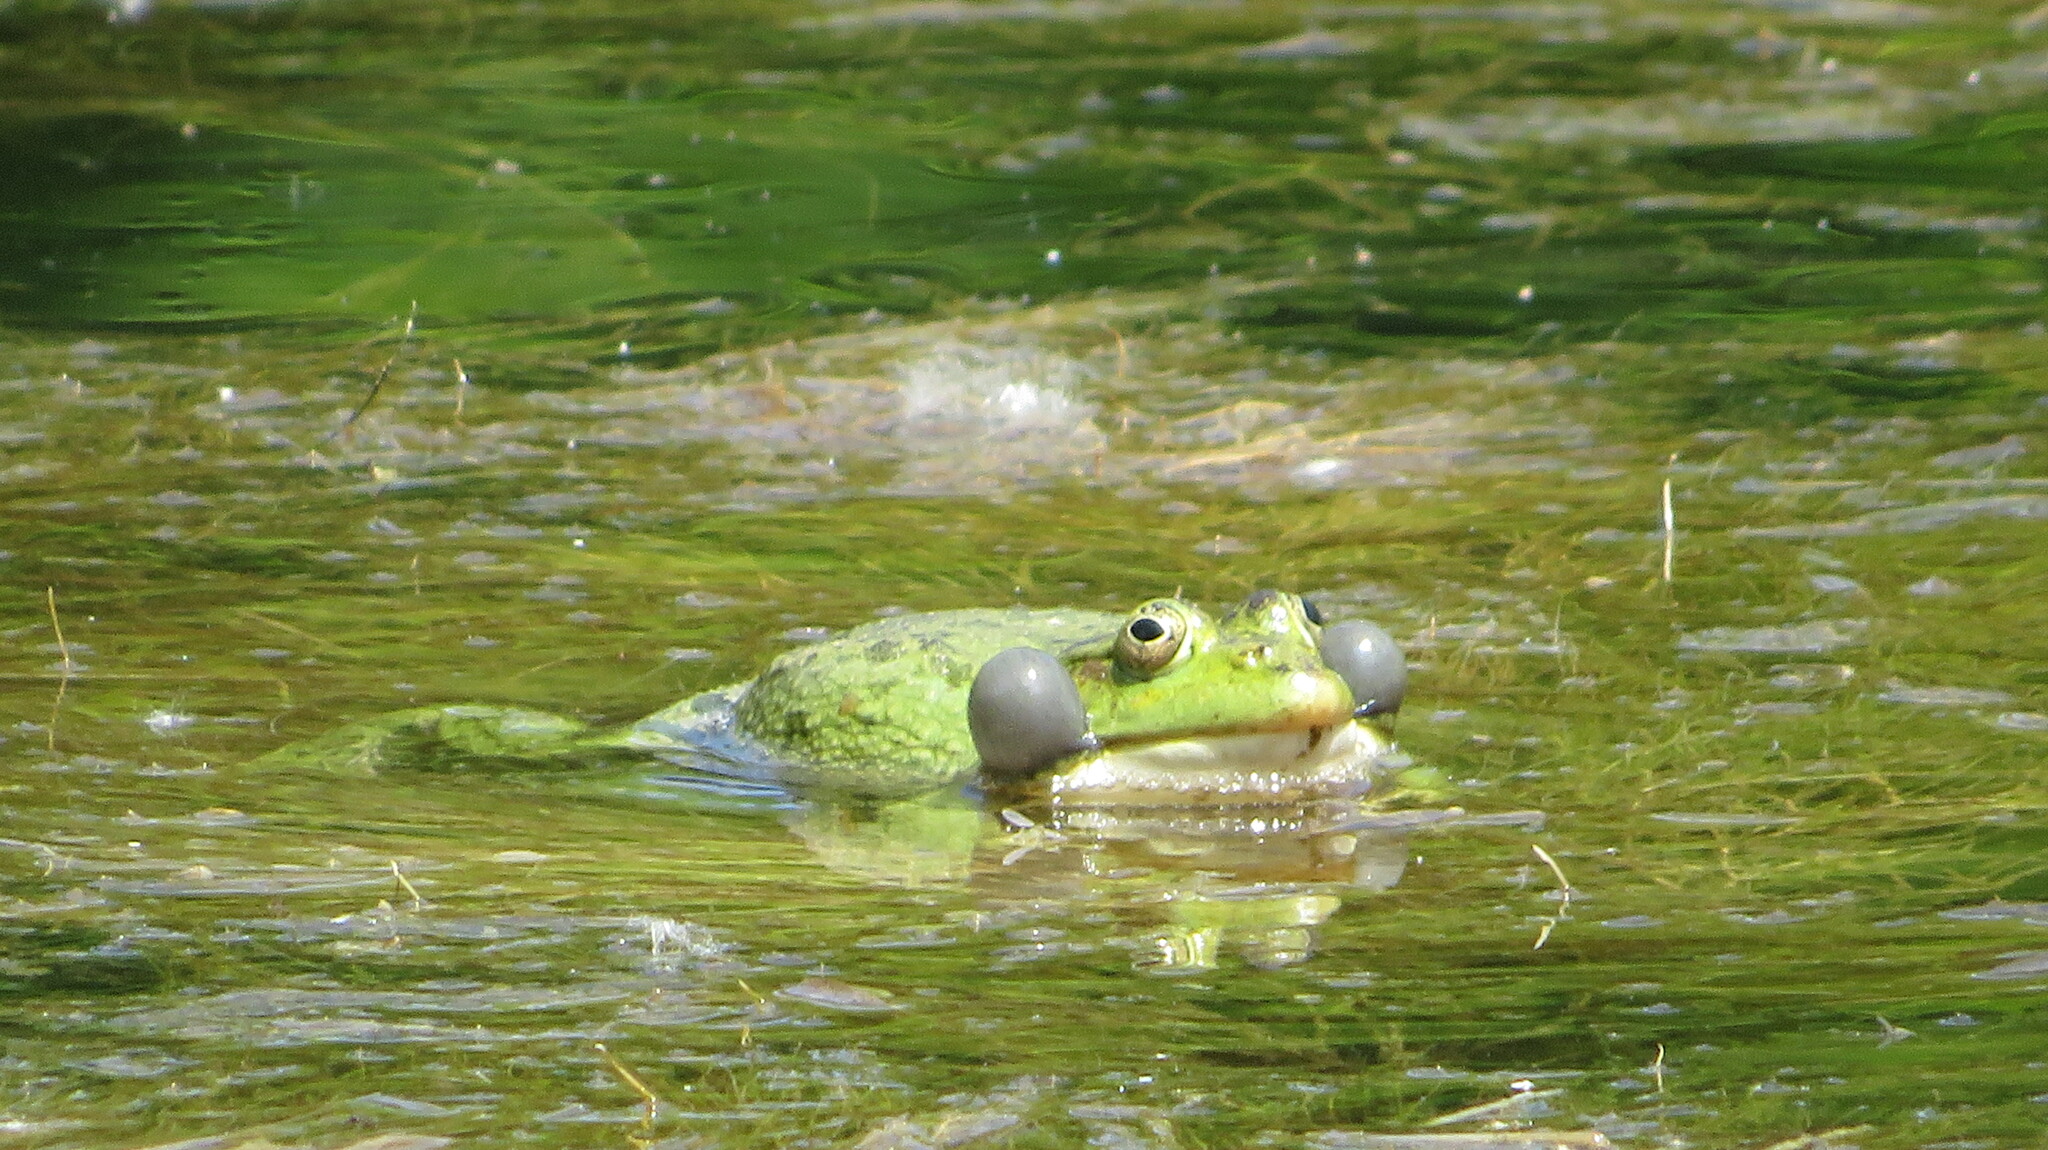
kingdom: Animalia
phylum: Chordata
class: Amphibia
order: Anura
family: Ranidae
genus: Pelophylax
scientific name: Pelophylax ridibundus
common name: Marsh frog
